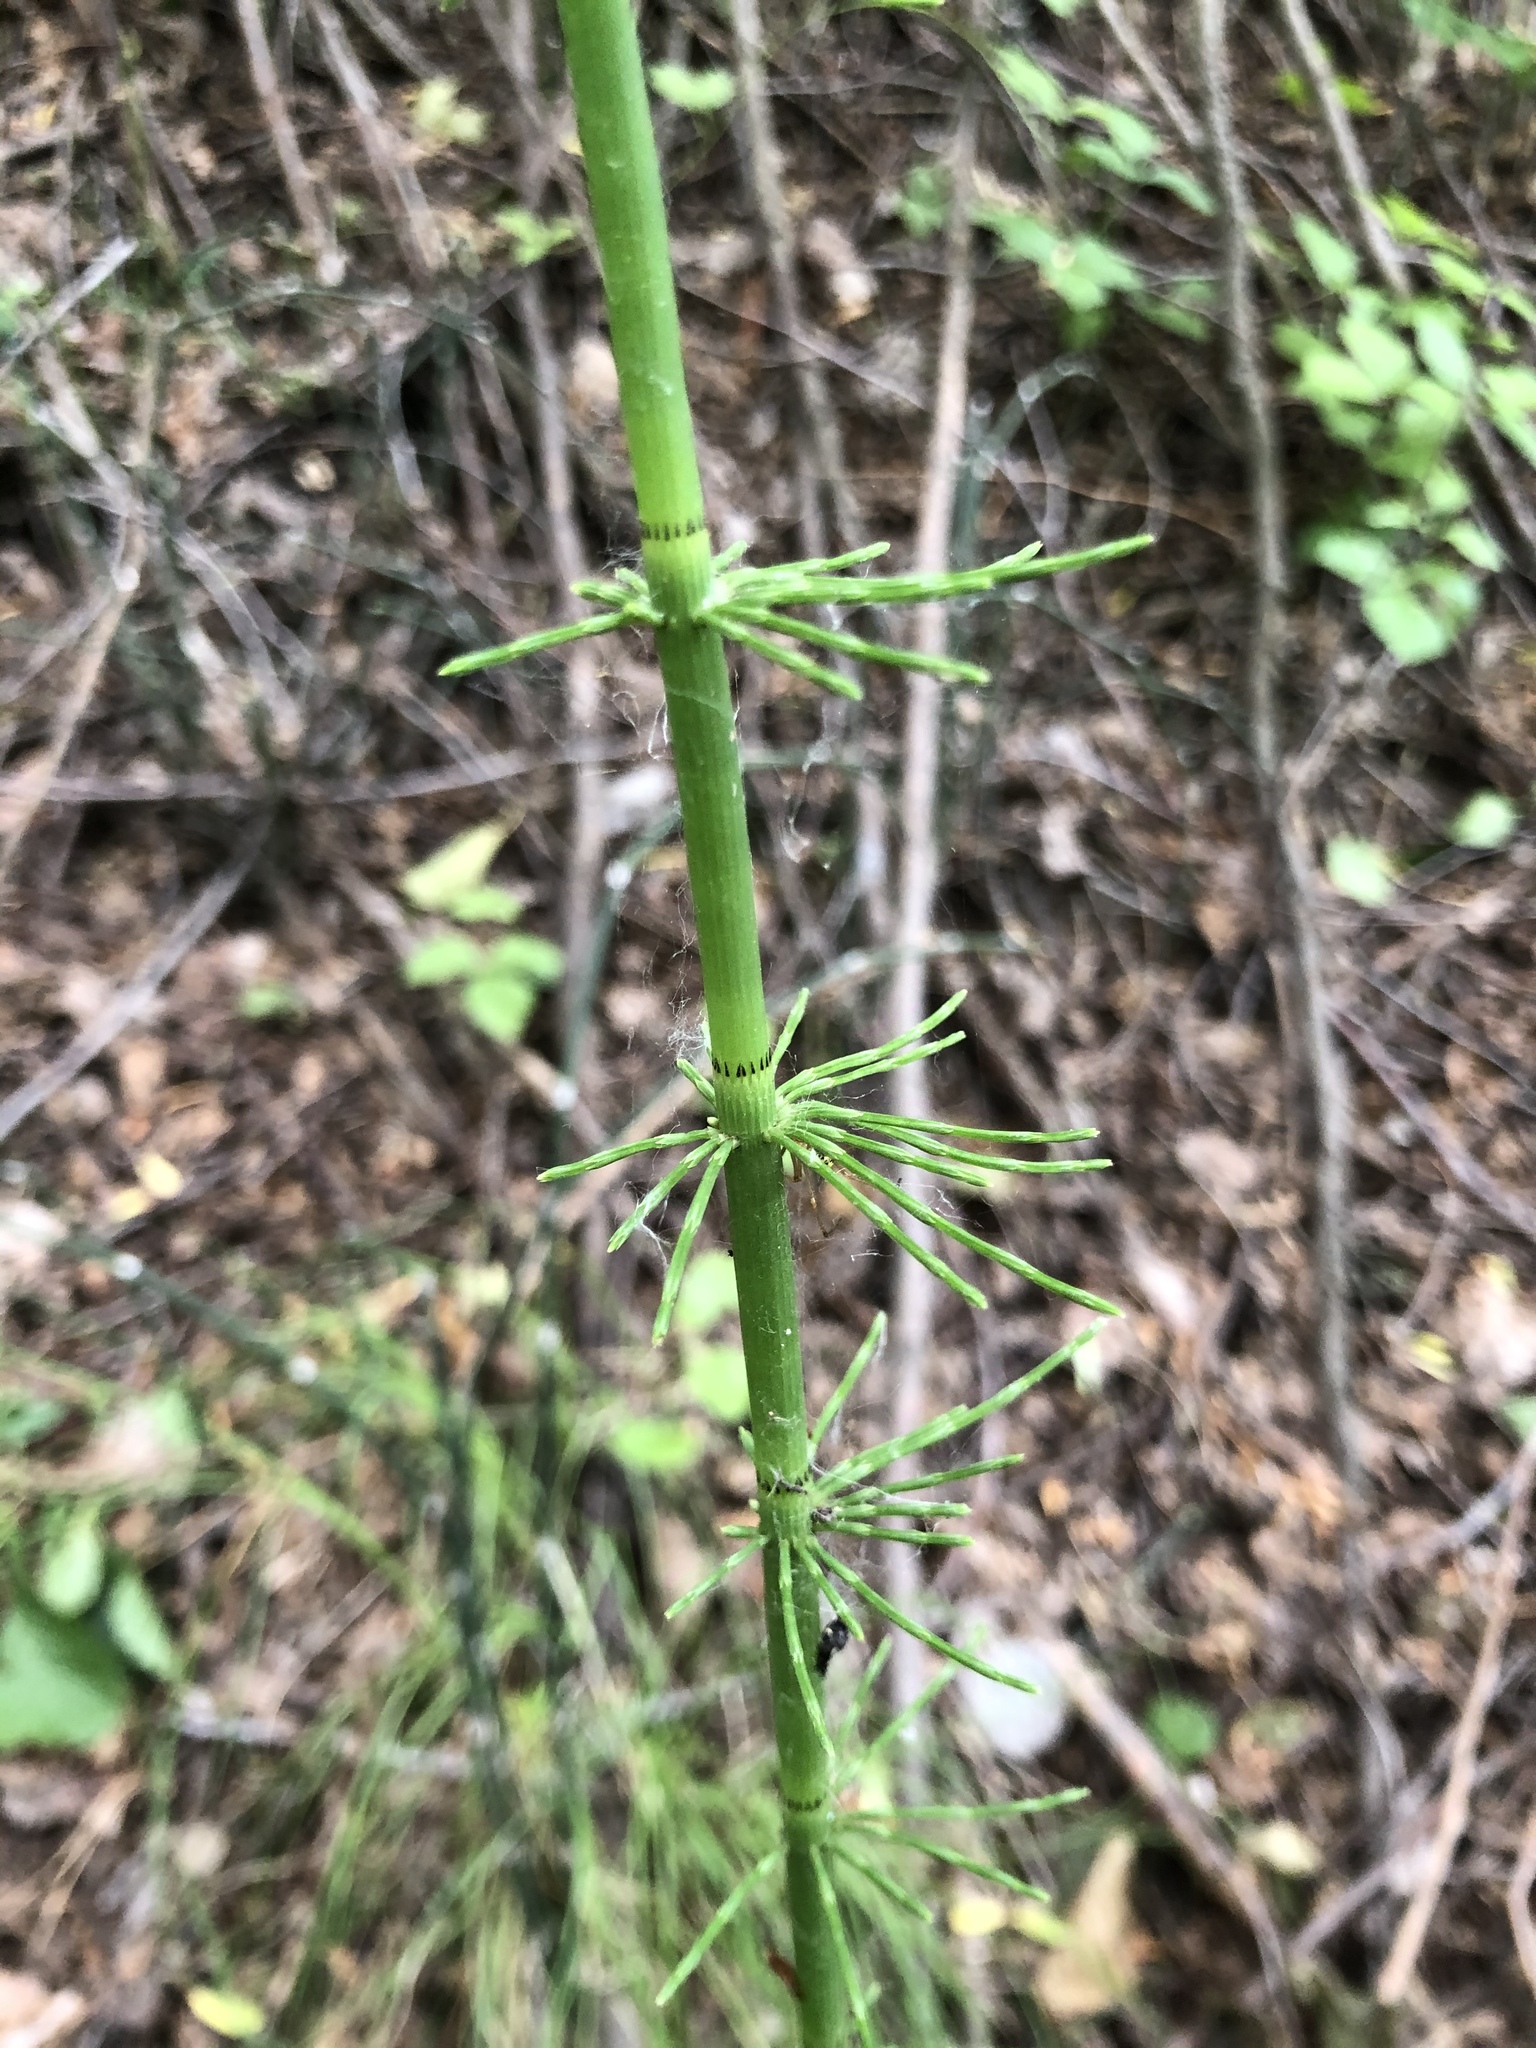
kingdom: Plantae
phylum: Tracheophyta
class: Polypodiopsida
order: Equisetales
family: Equisetaceae
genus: Equisetum
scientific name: Equisetum fluviatile
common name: Water horsetail
